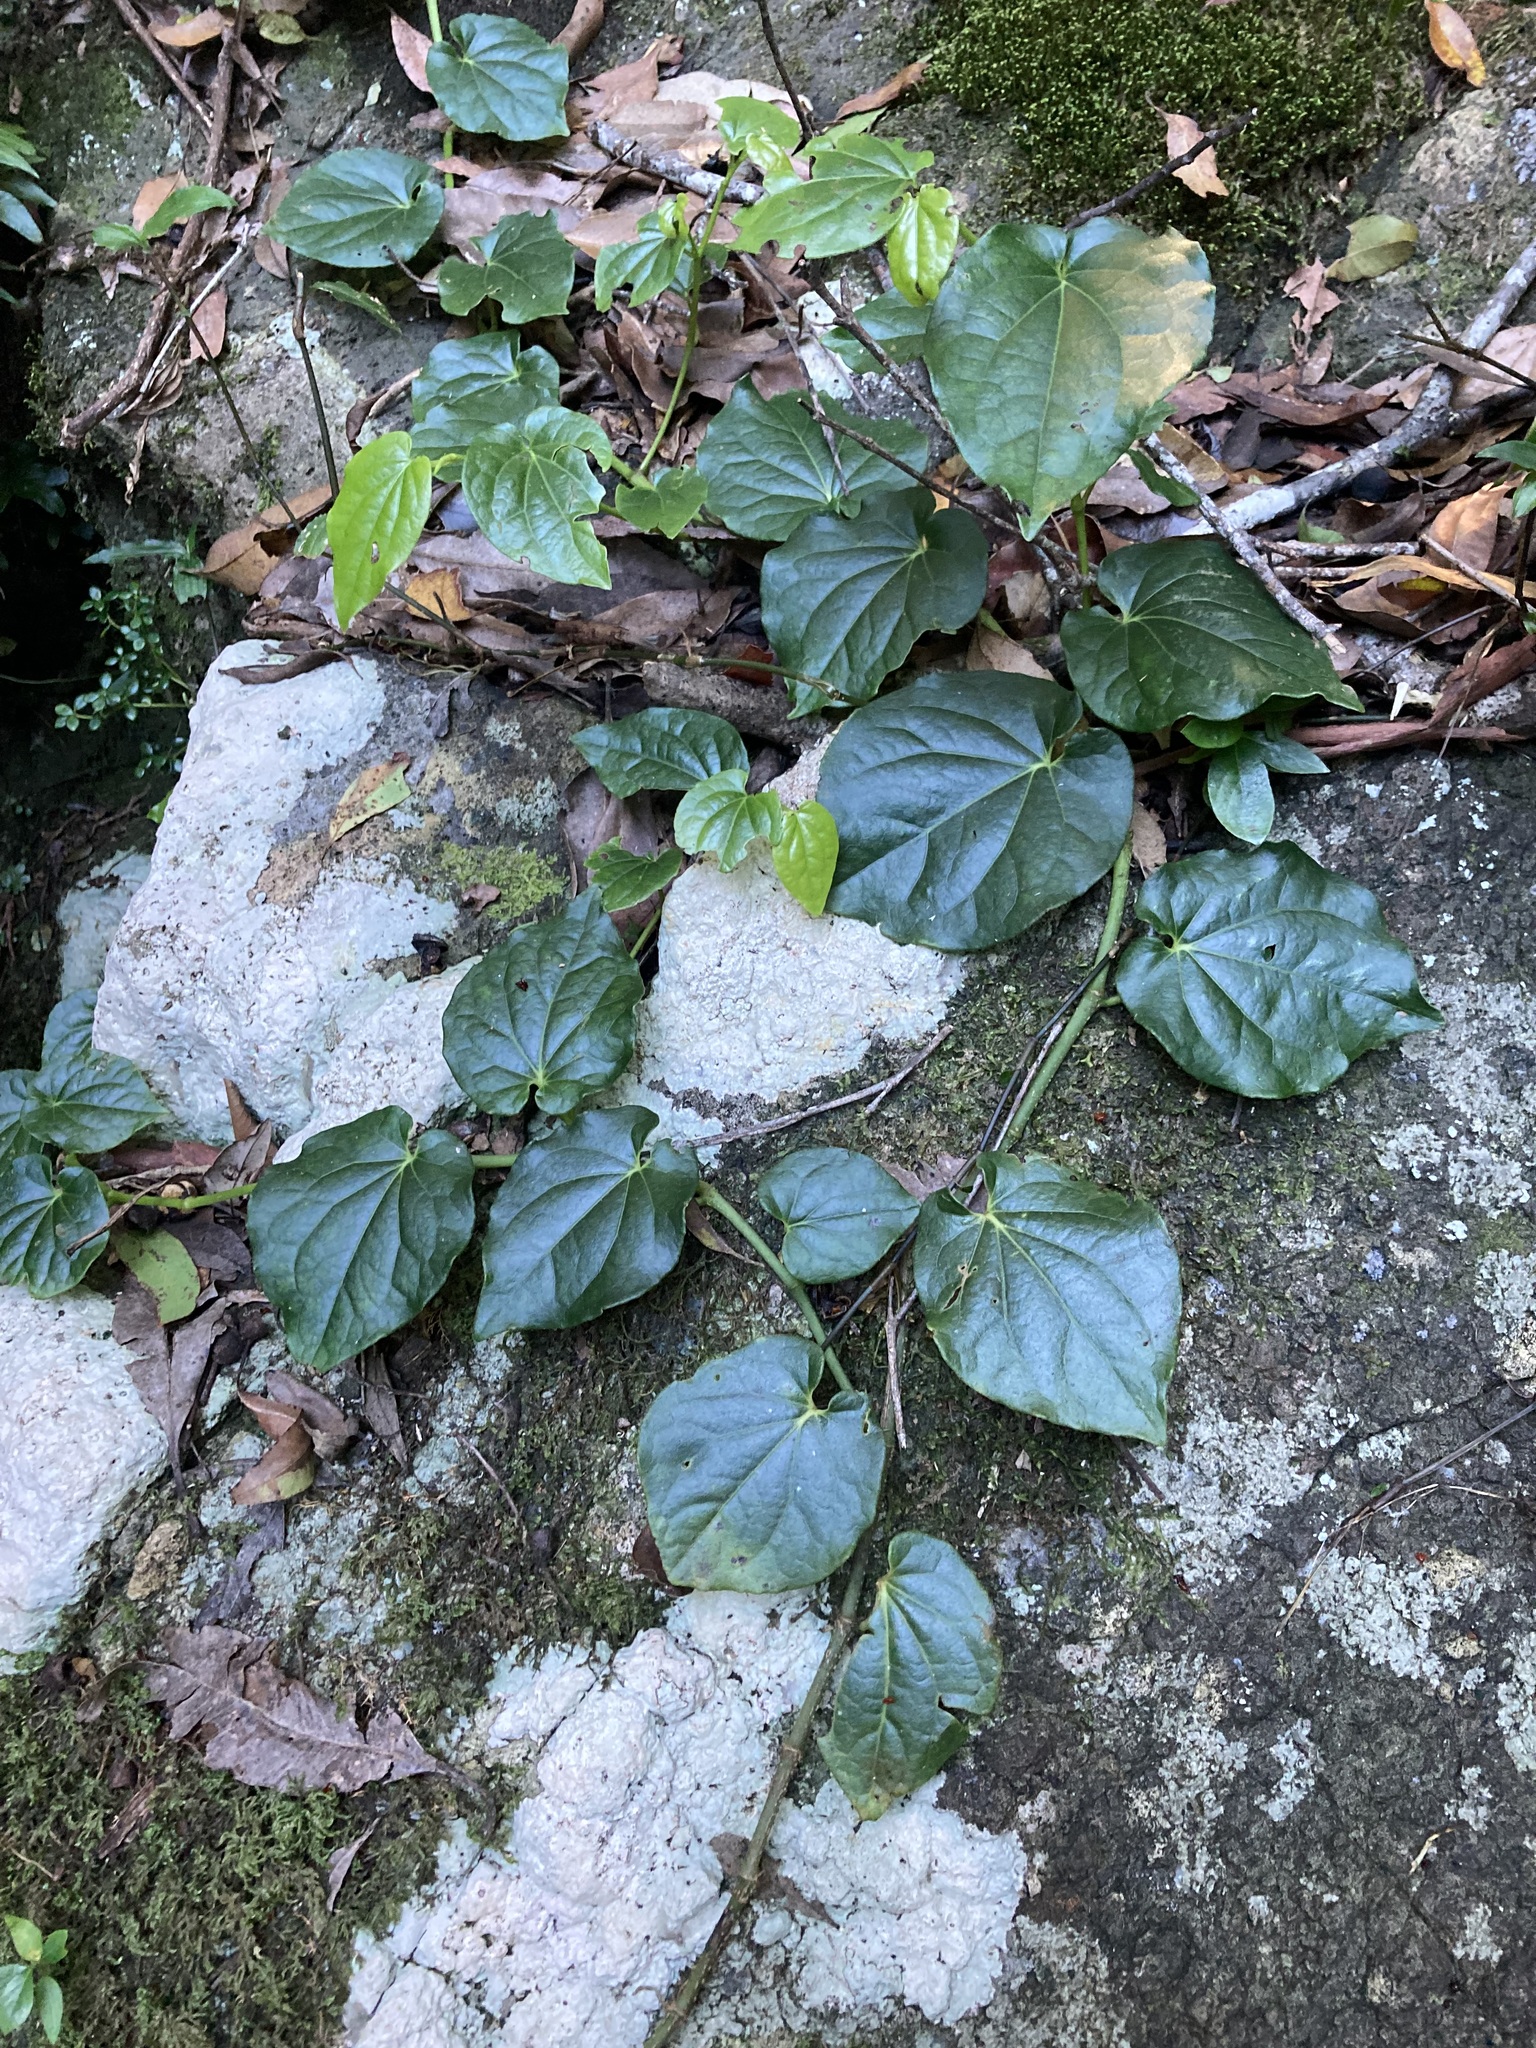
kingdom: Plantae
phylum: Tracheophyta
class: Magnoliopsida
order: Piperales
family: Piperaceae
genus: Piper
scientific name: Piper hederaceum
